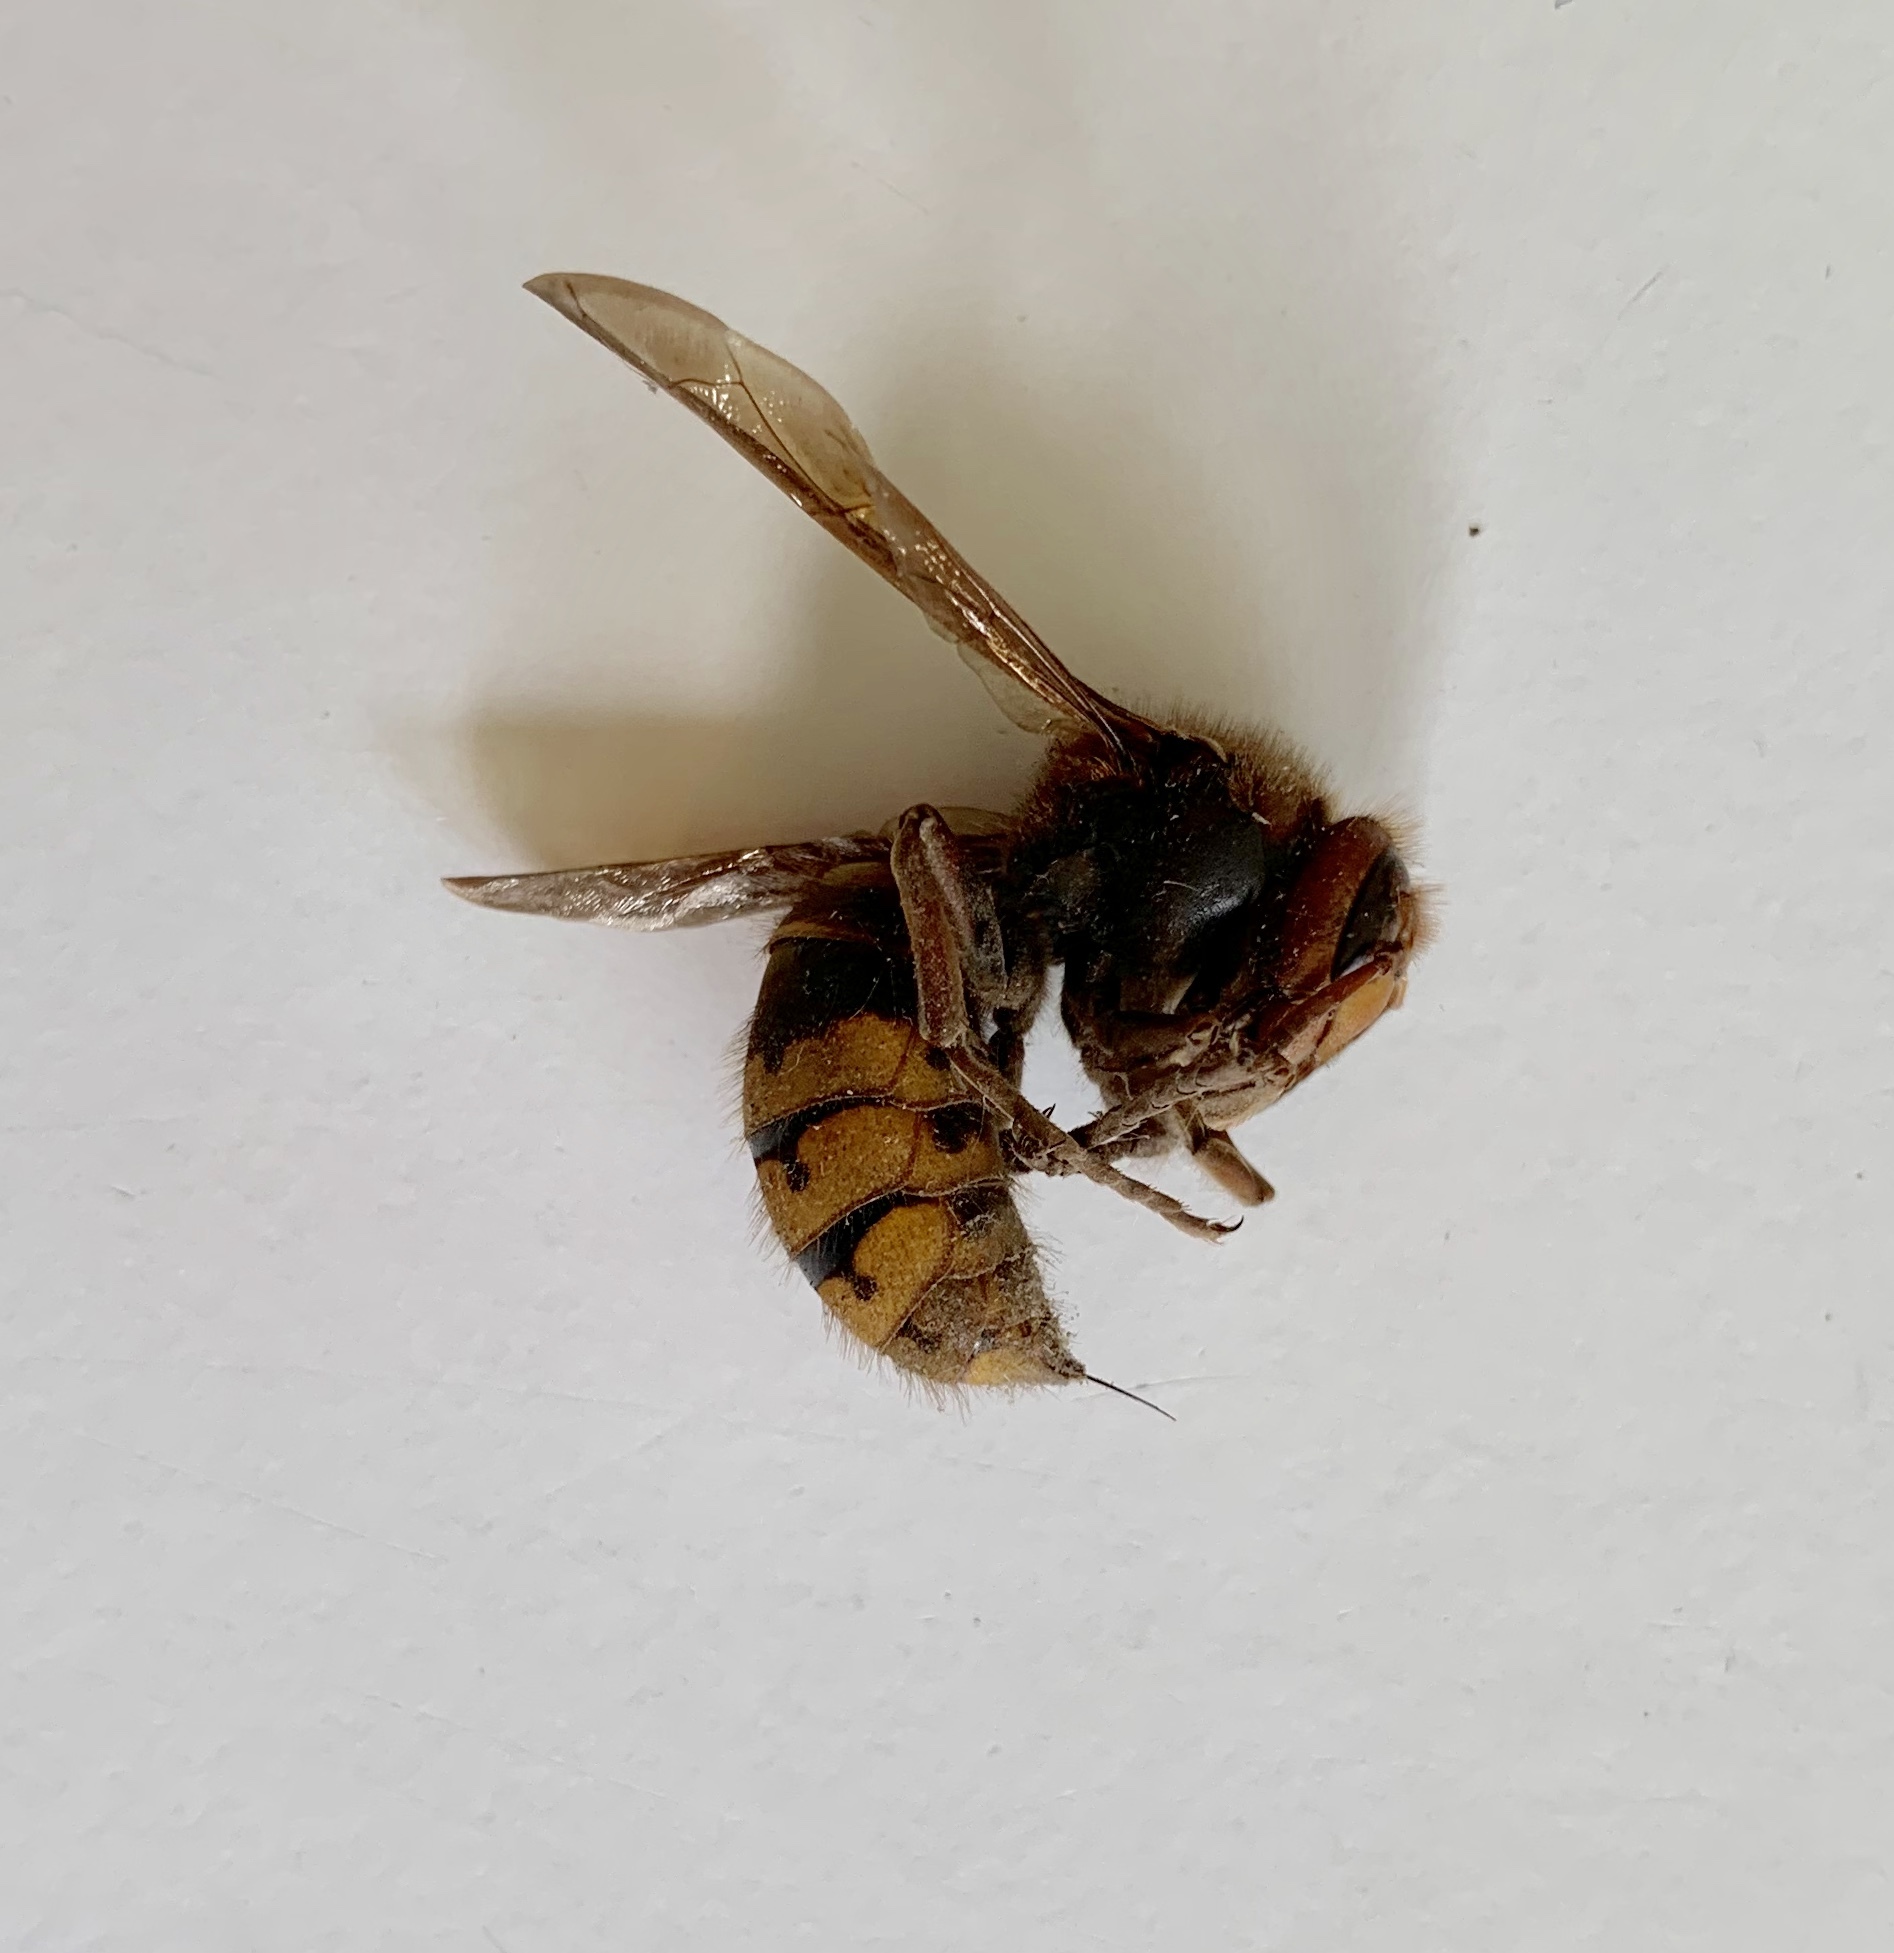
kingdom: Animalia
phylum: Arthropoda
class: Insecta
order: Hymenoptera
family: Vespidae
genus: Vespa
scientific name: Vespa crabro
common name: Hornet
